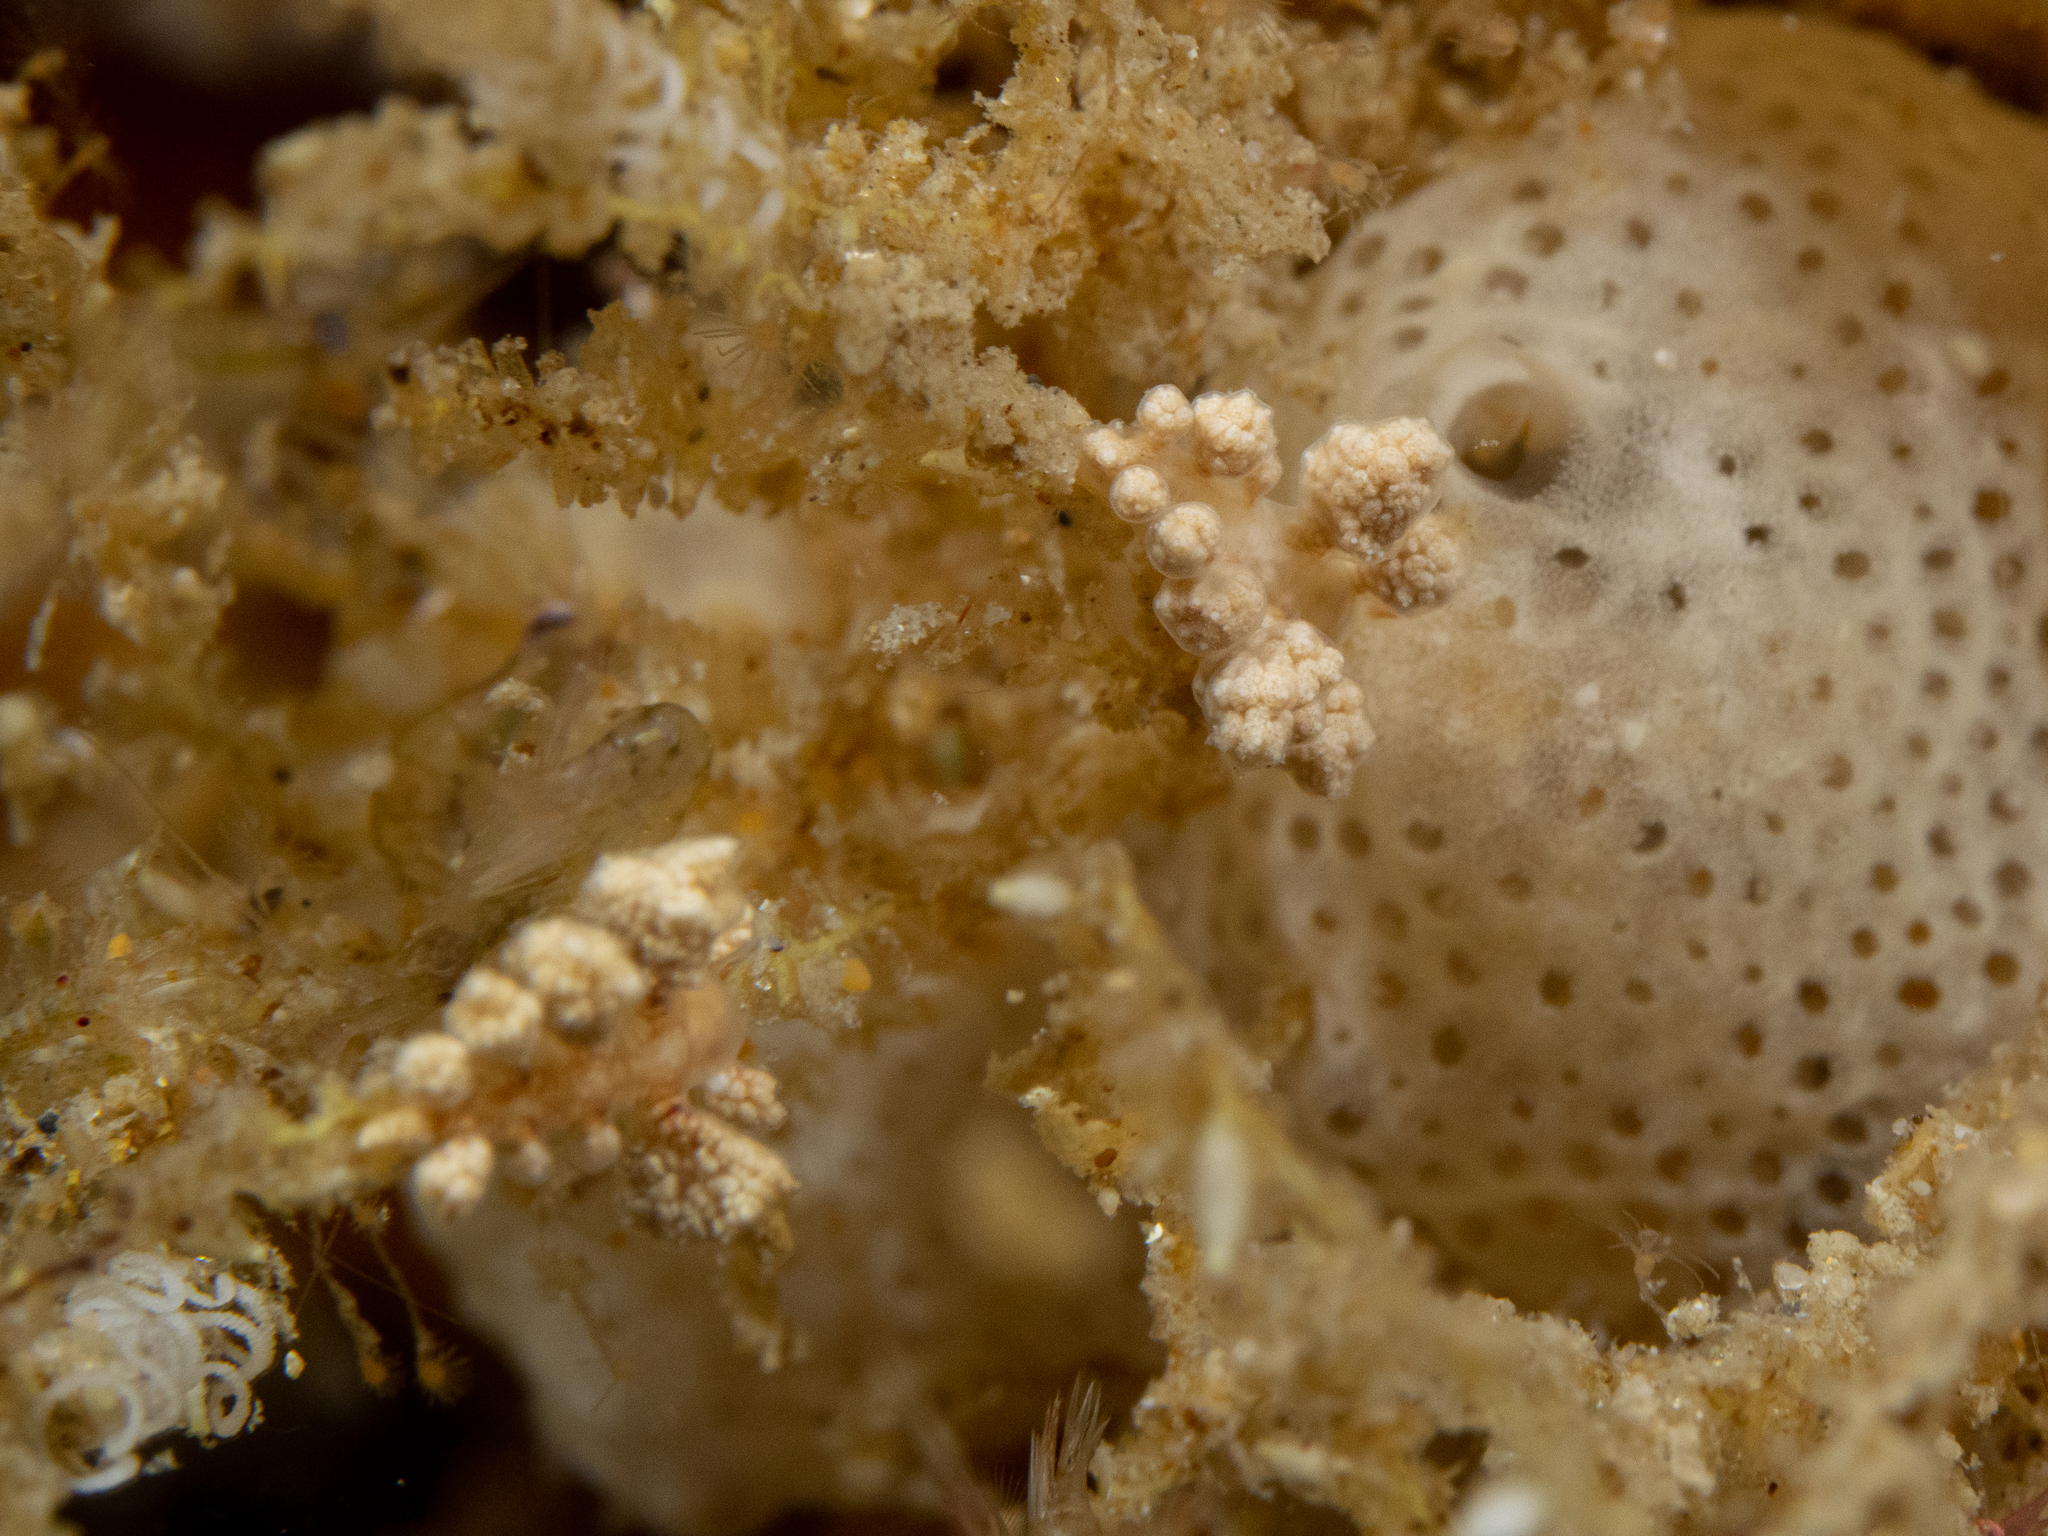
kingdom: Animalia
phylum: Mollusca
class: Gastropoda
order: Nudibranchia
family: Dotidae
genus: Doto
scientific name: Doto pita
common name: Pita doto
